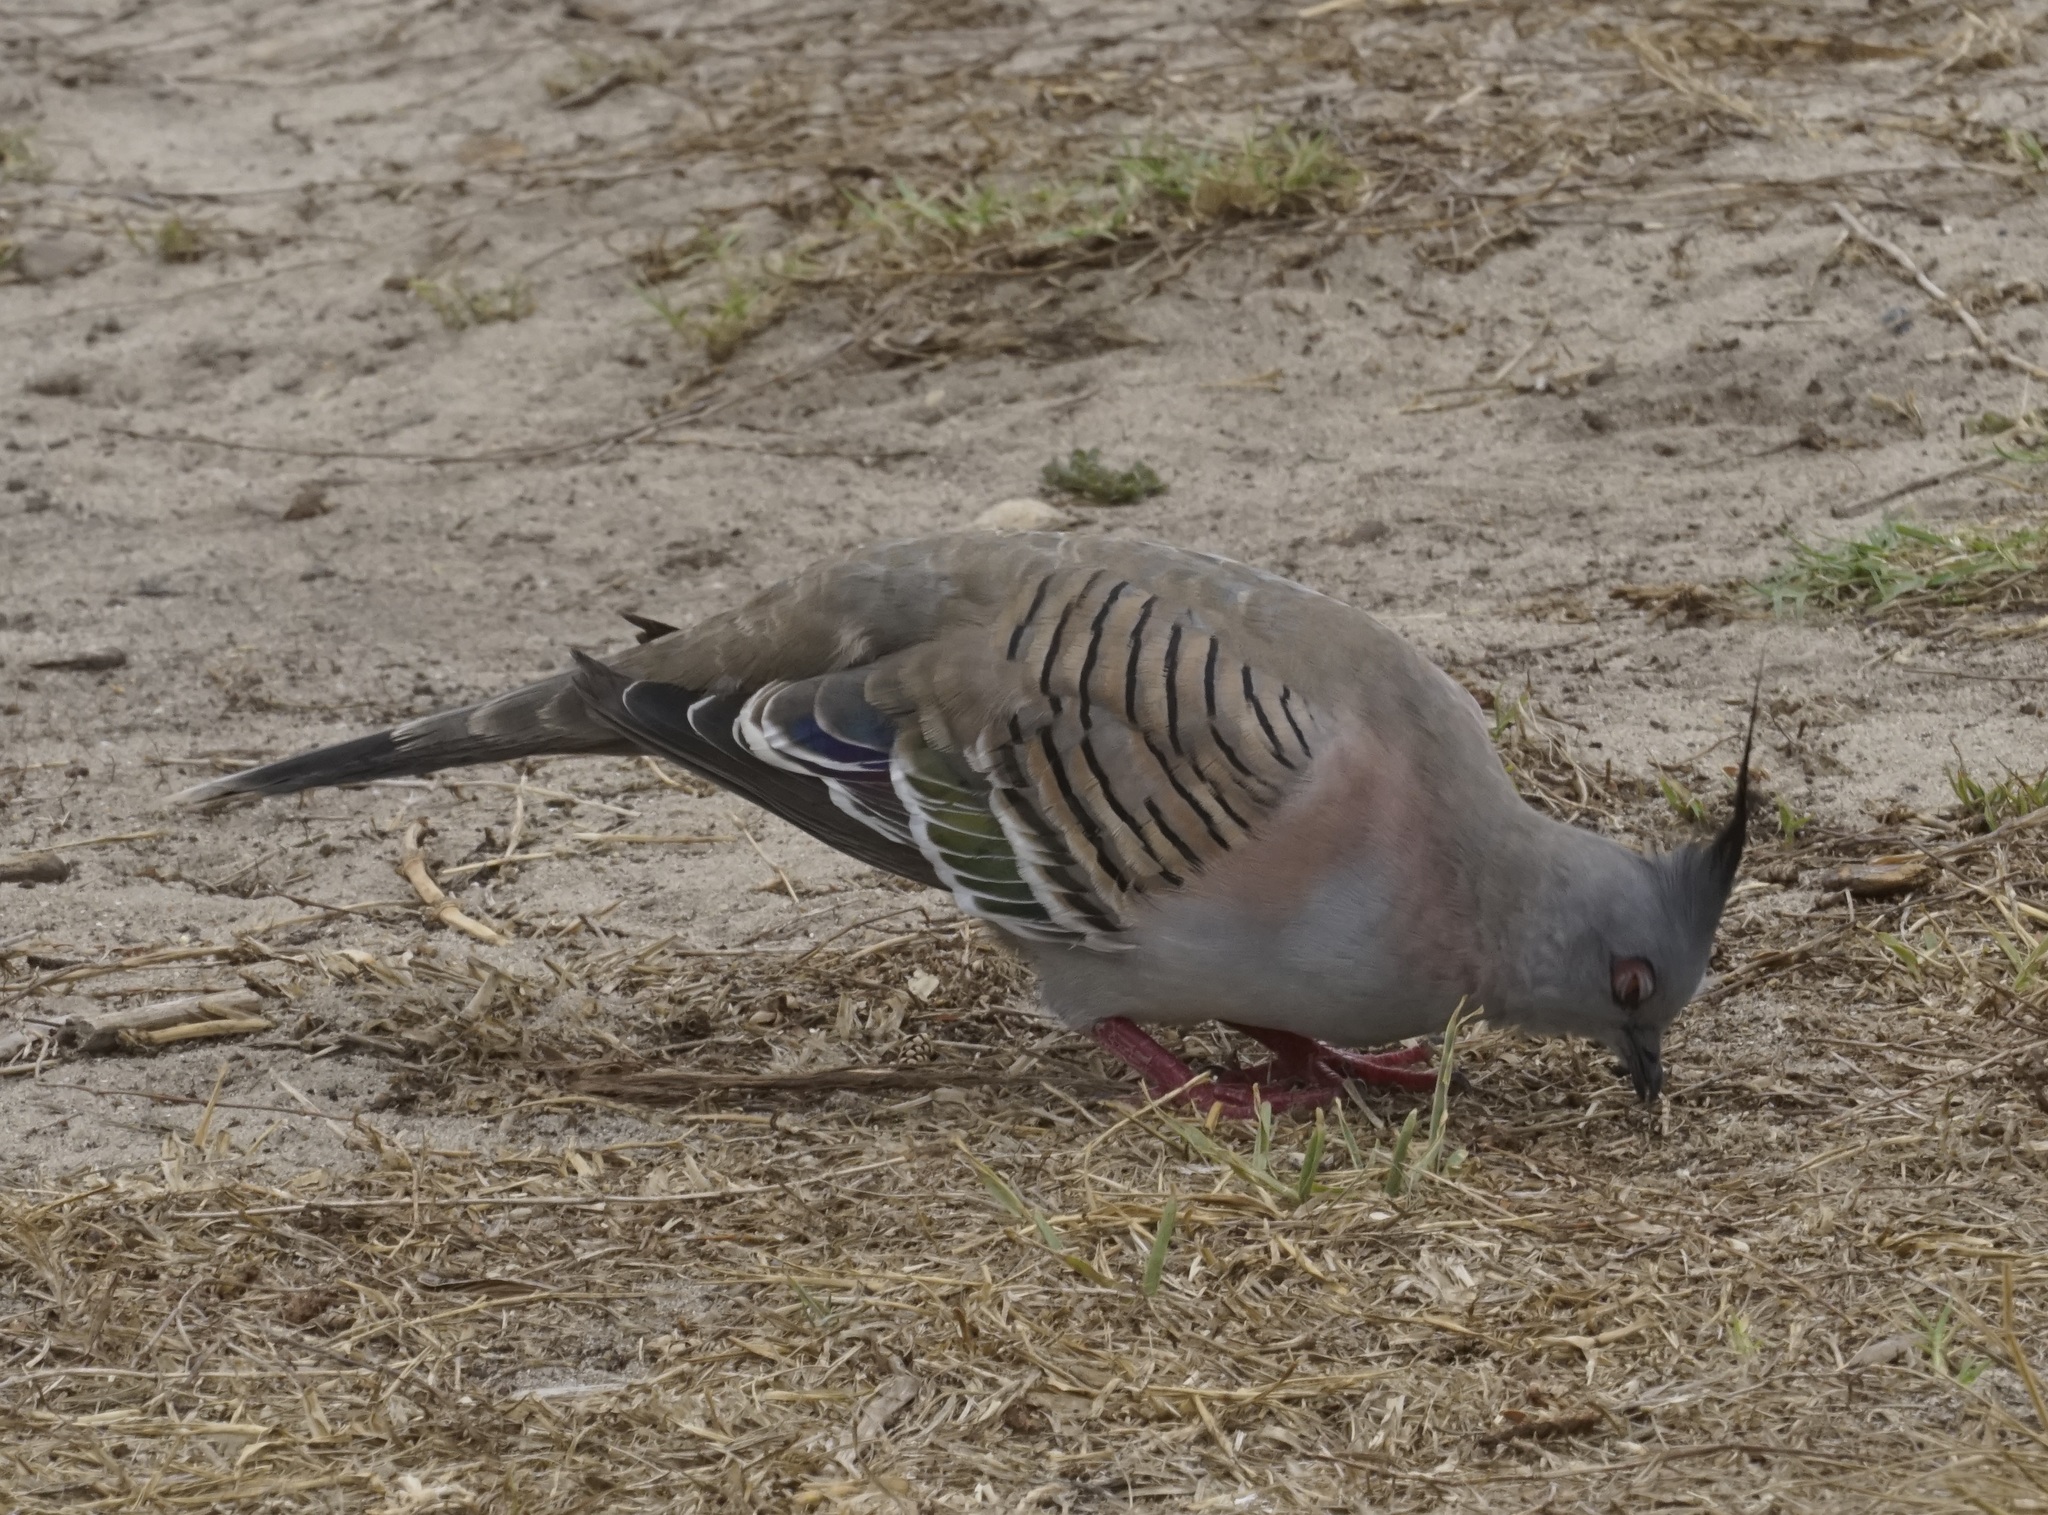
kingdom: Animalia
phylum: Chordata
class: Aves
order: Columbiformes
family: Columbidae
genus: Ocyphaps
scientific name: Ocyphaps lophotes
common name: Crested pigeon
